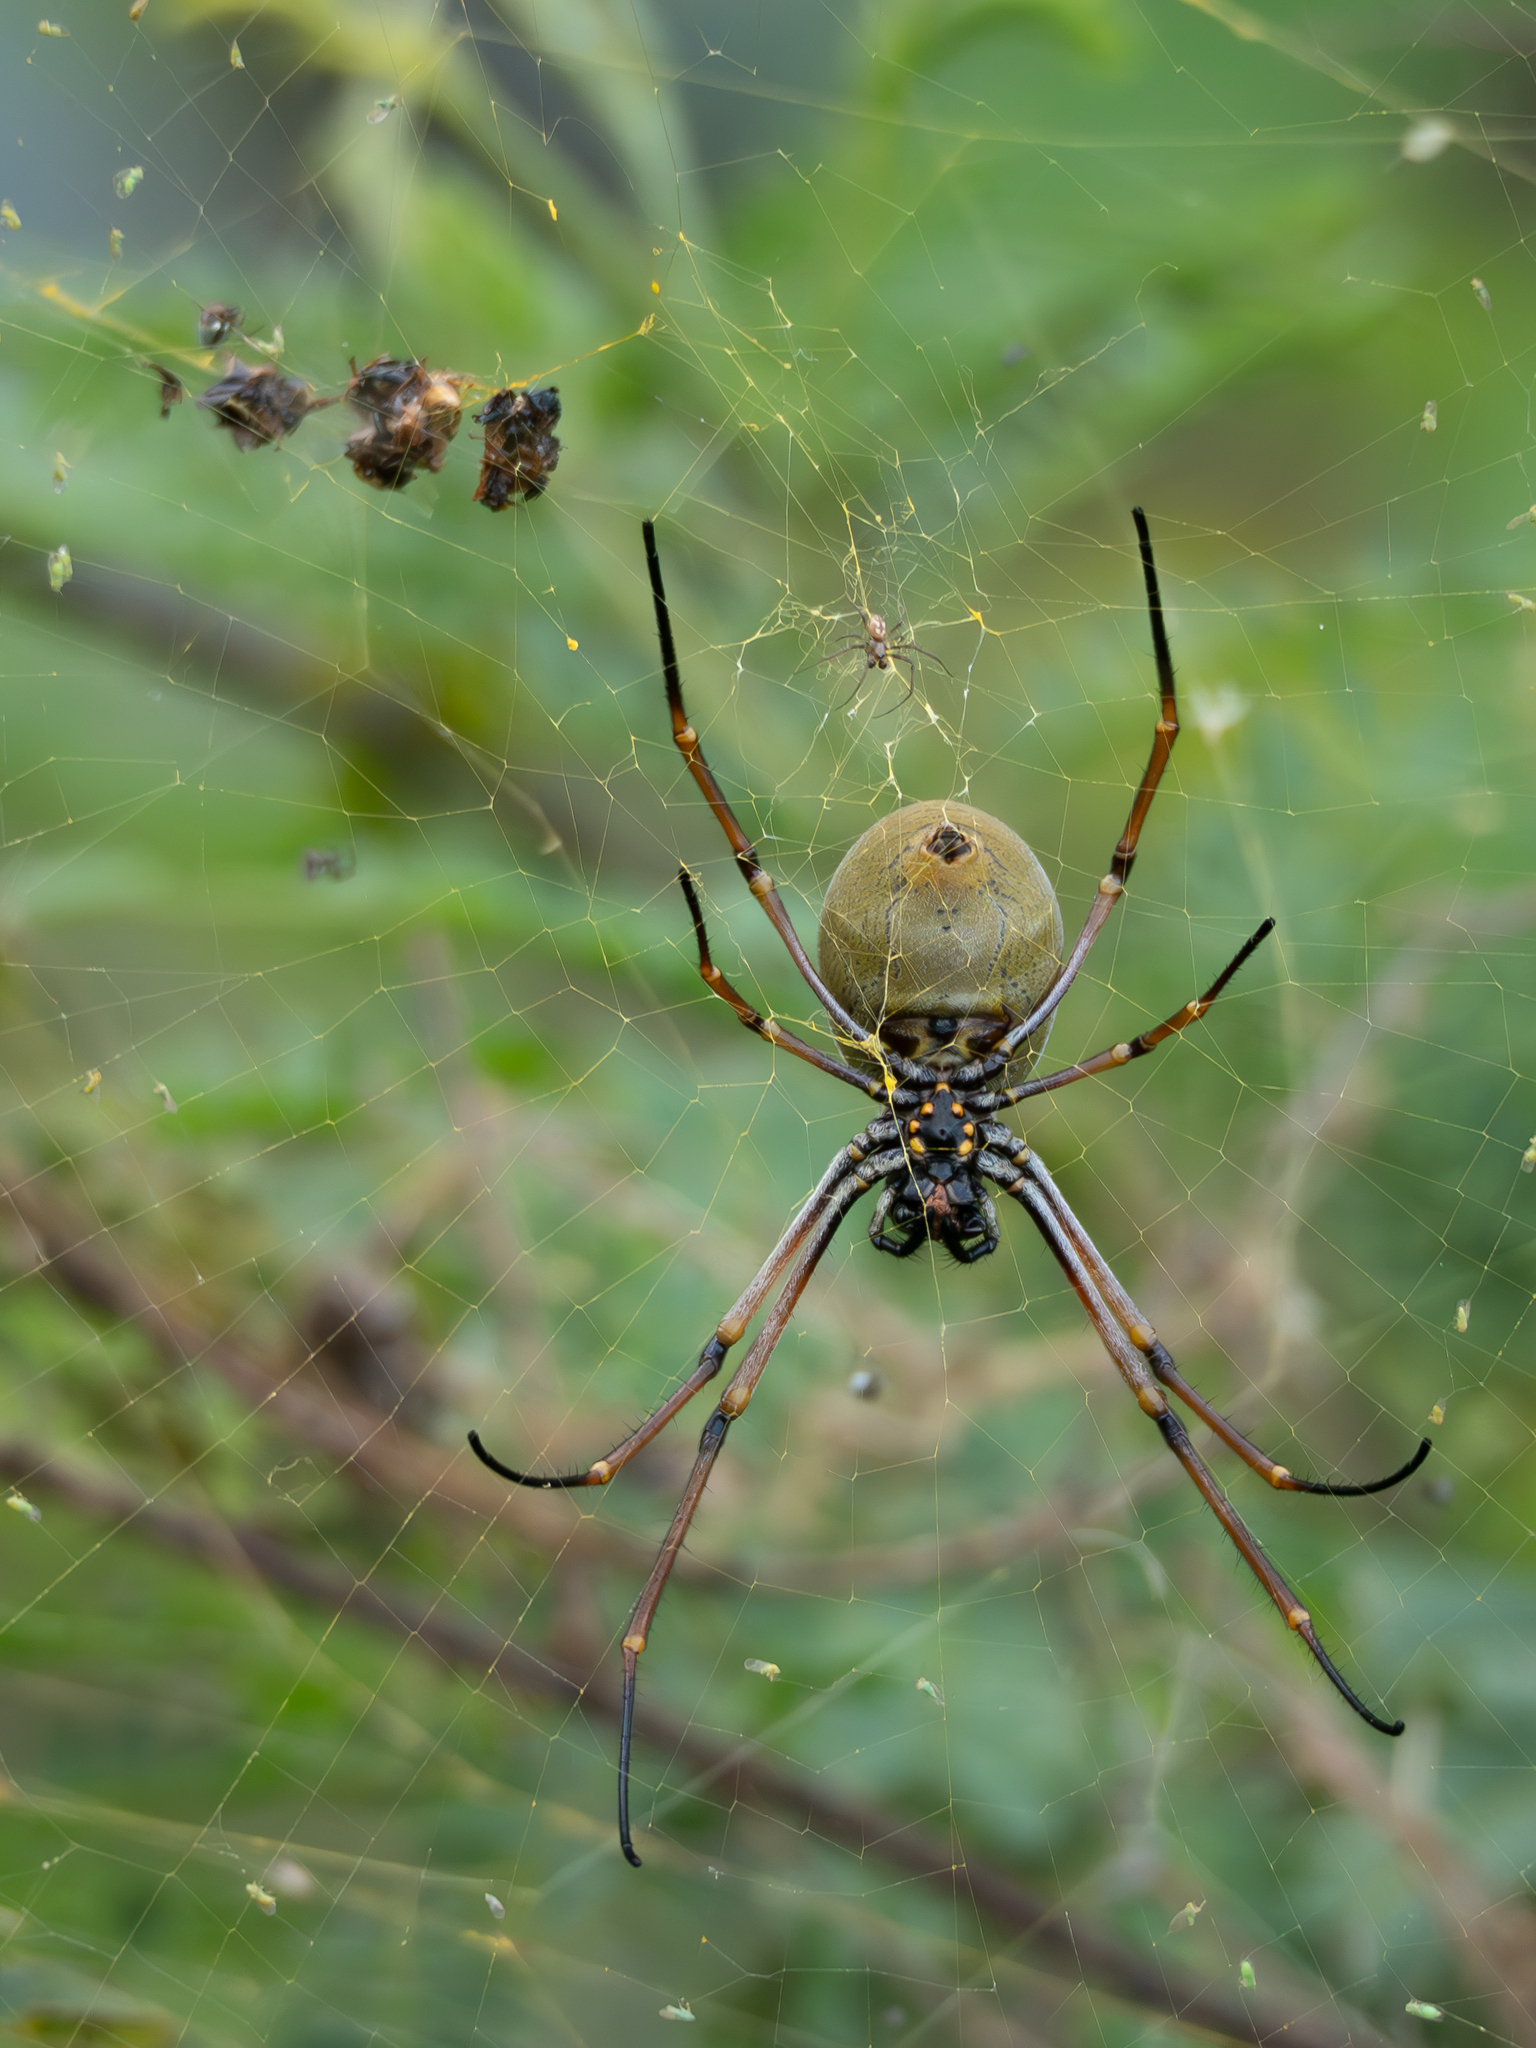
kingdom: Animalia
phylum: Arthropoda
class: Arachnida
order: Araneae
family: Araneidae
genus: Trichonephila
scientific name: Trichonephila plumipes
